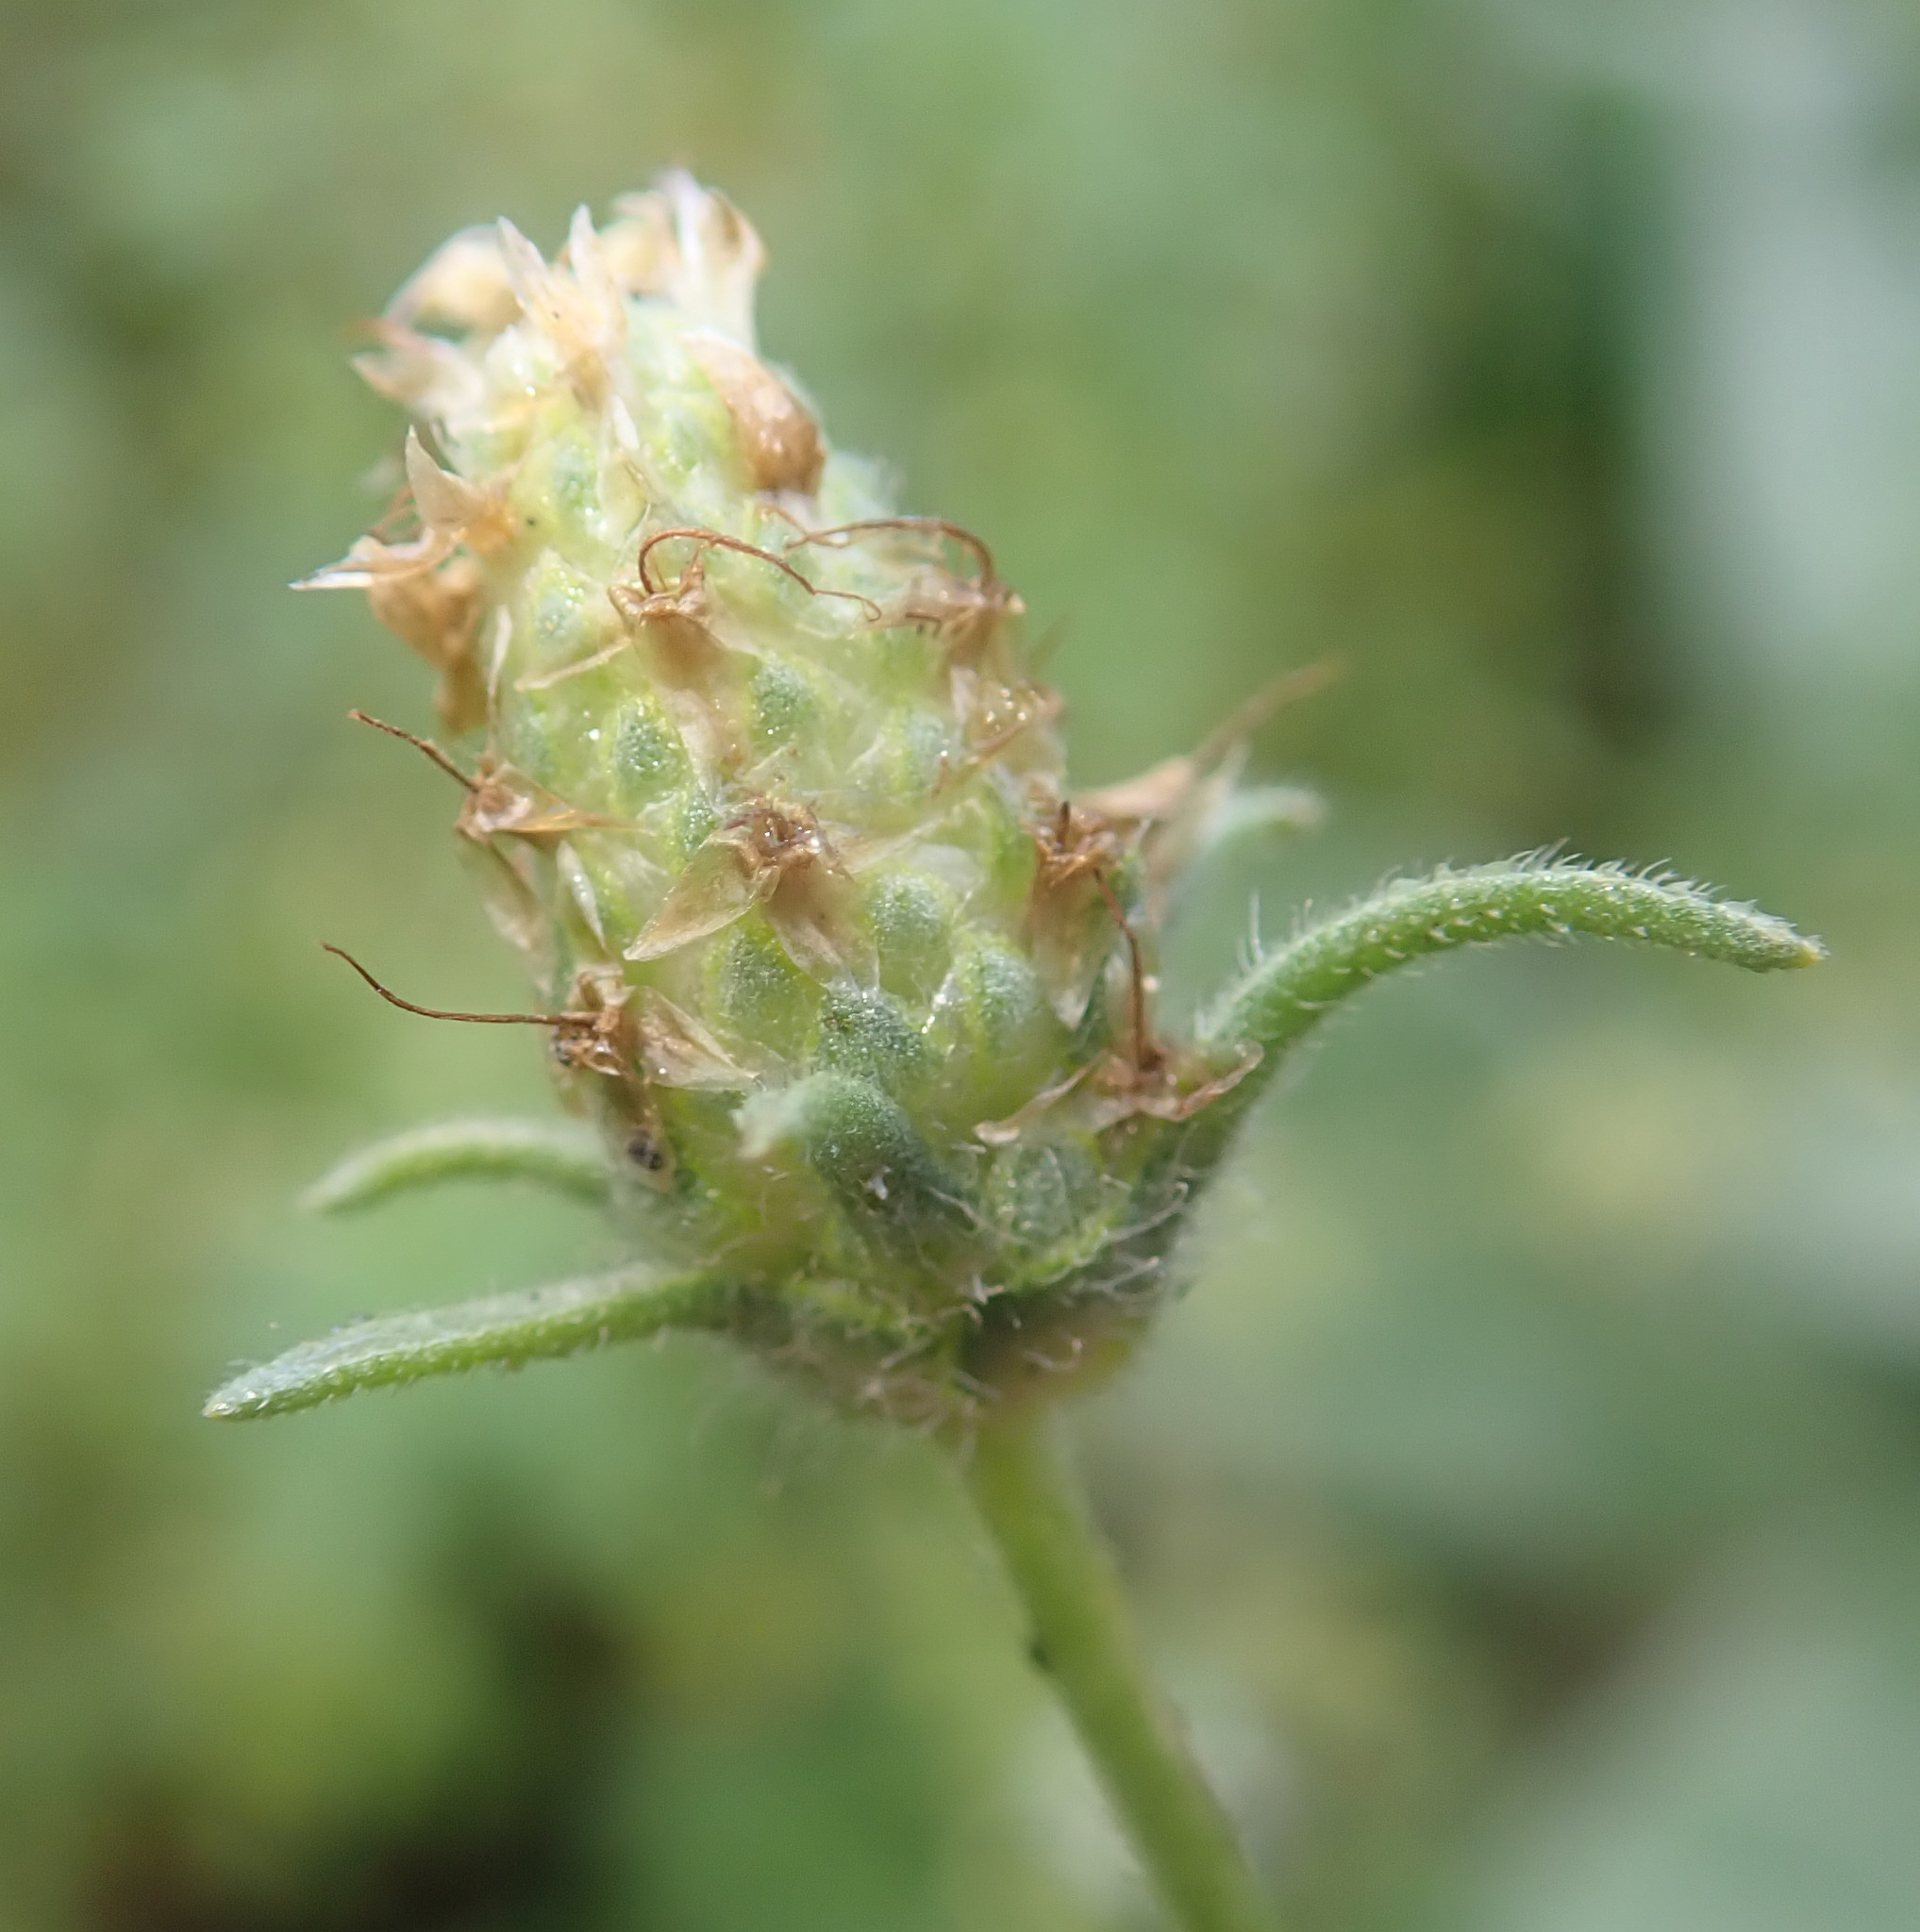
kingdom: Plantae
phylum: Tracheophyta
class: Magnoliopsida
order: Lamiales
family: Plantaginaceae
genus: Plantago
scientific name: Plantago afra
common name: Glandular plantain
